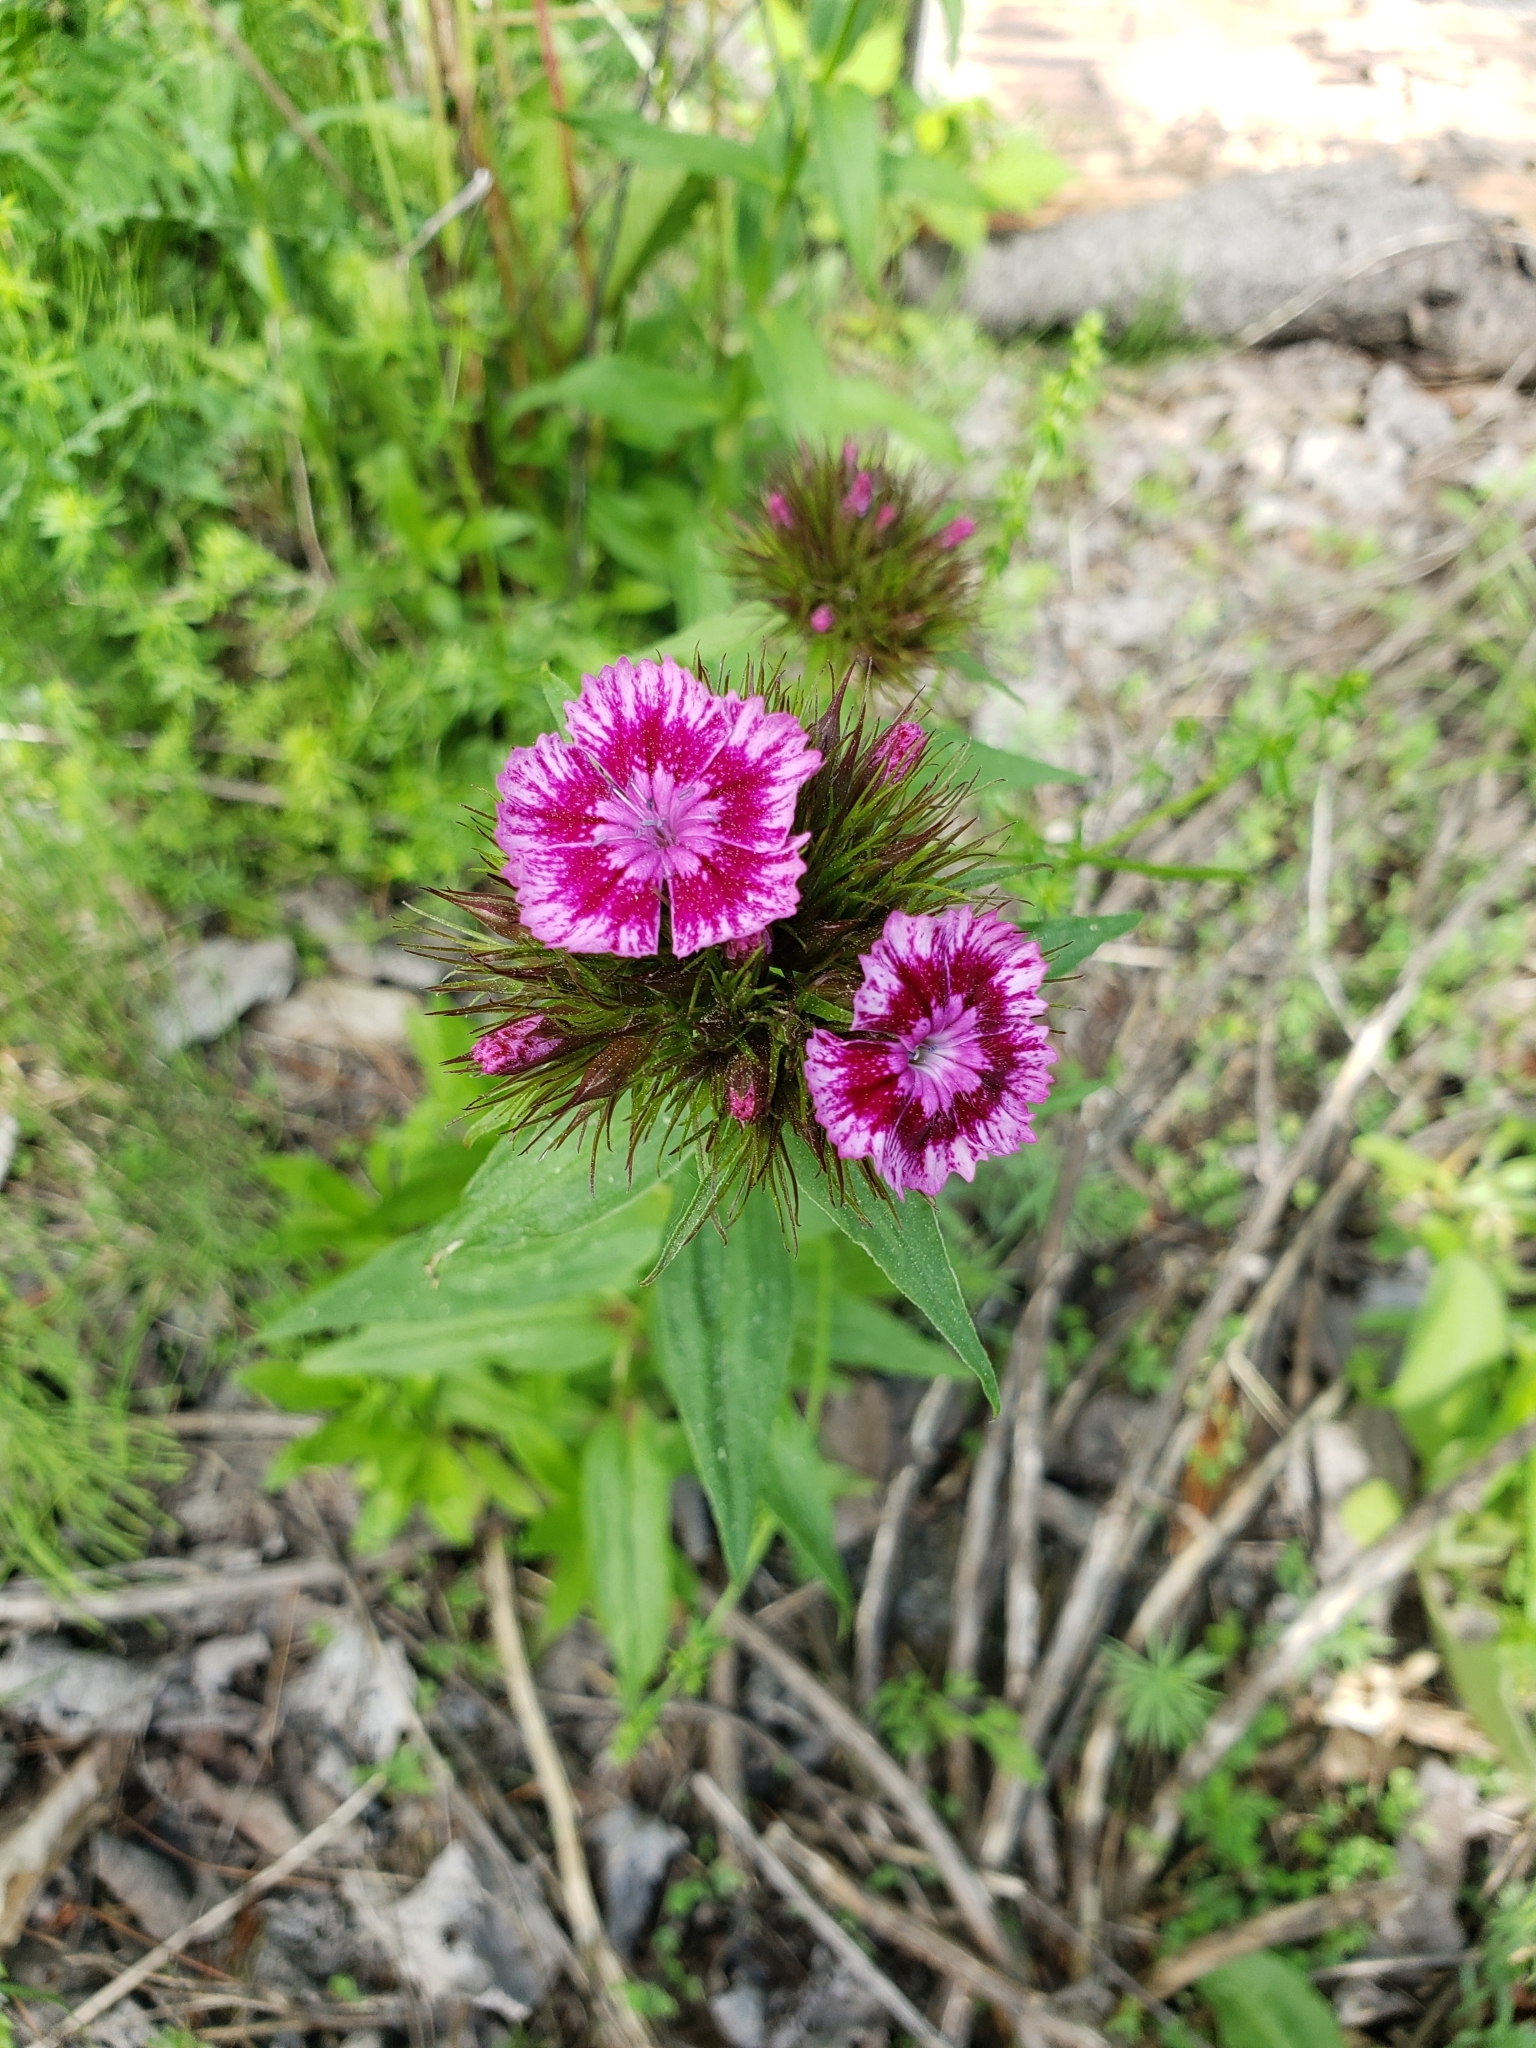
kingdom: Plantae
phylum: Tracheophyta
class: Magnoliopsida
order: Caryophyllales
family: Caryophyllaceae
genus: Dianthus
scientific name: Dianthus barbatus
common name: Sweet-william
